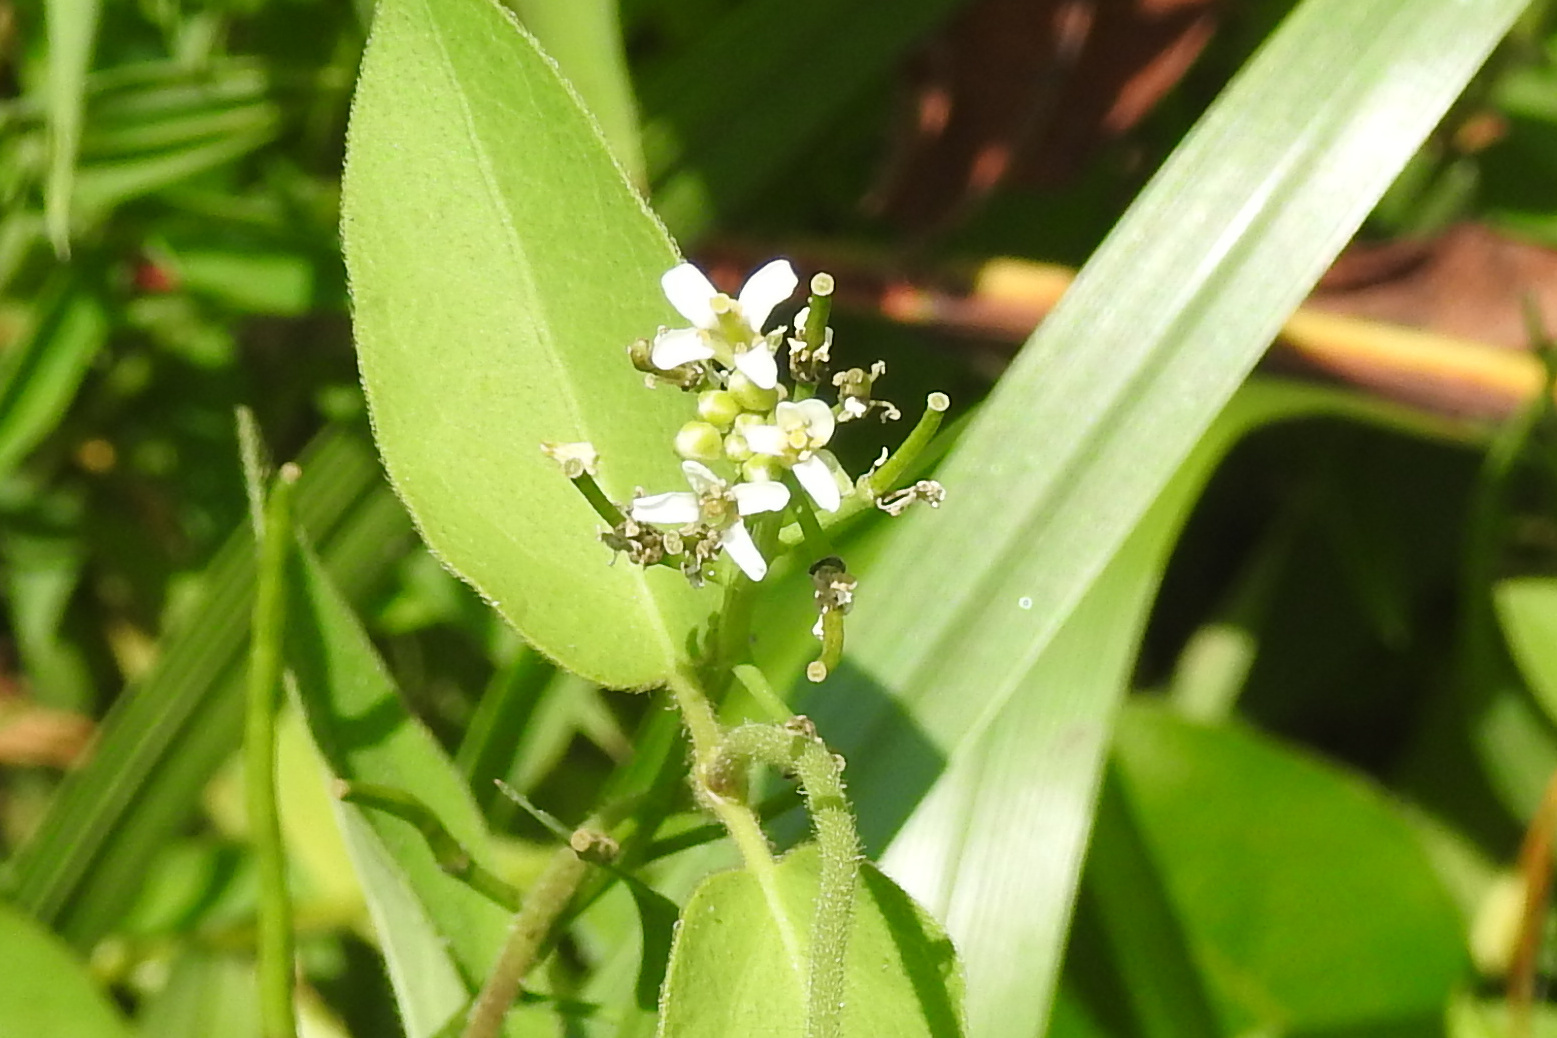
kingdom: Plantae
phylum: Tracheophyta
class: Magnoliopsida
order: Brassicales
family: Brassicaceae
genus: Alliaria
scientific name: Alliaria petiolata
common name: Garlic mustard
